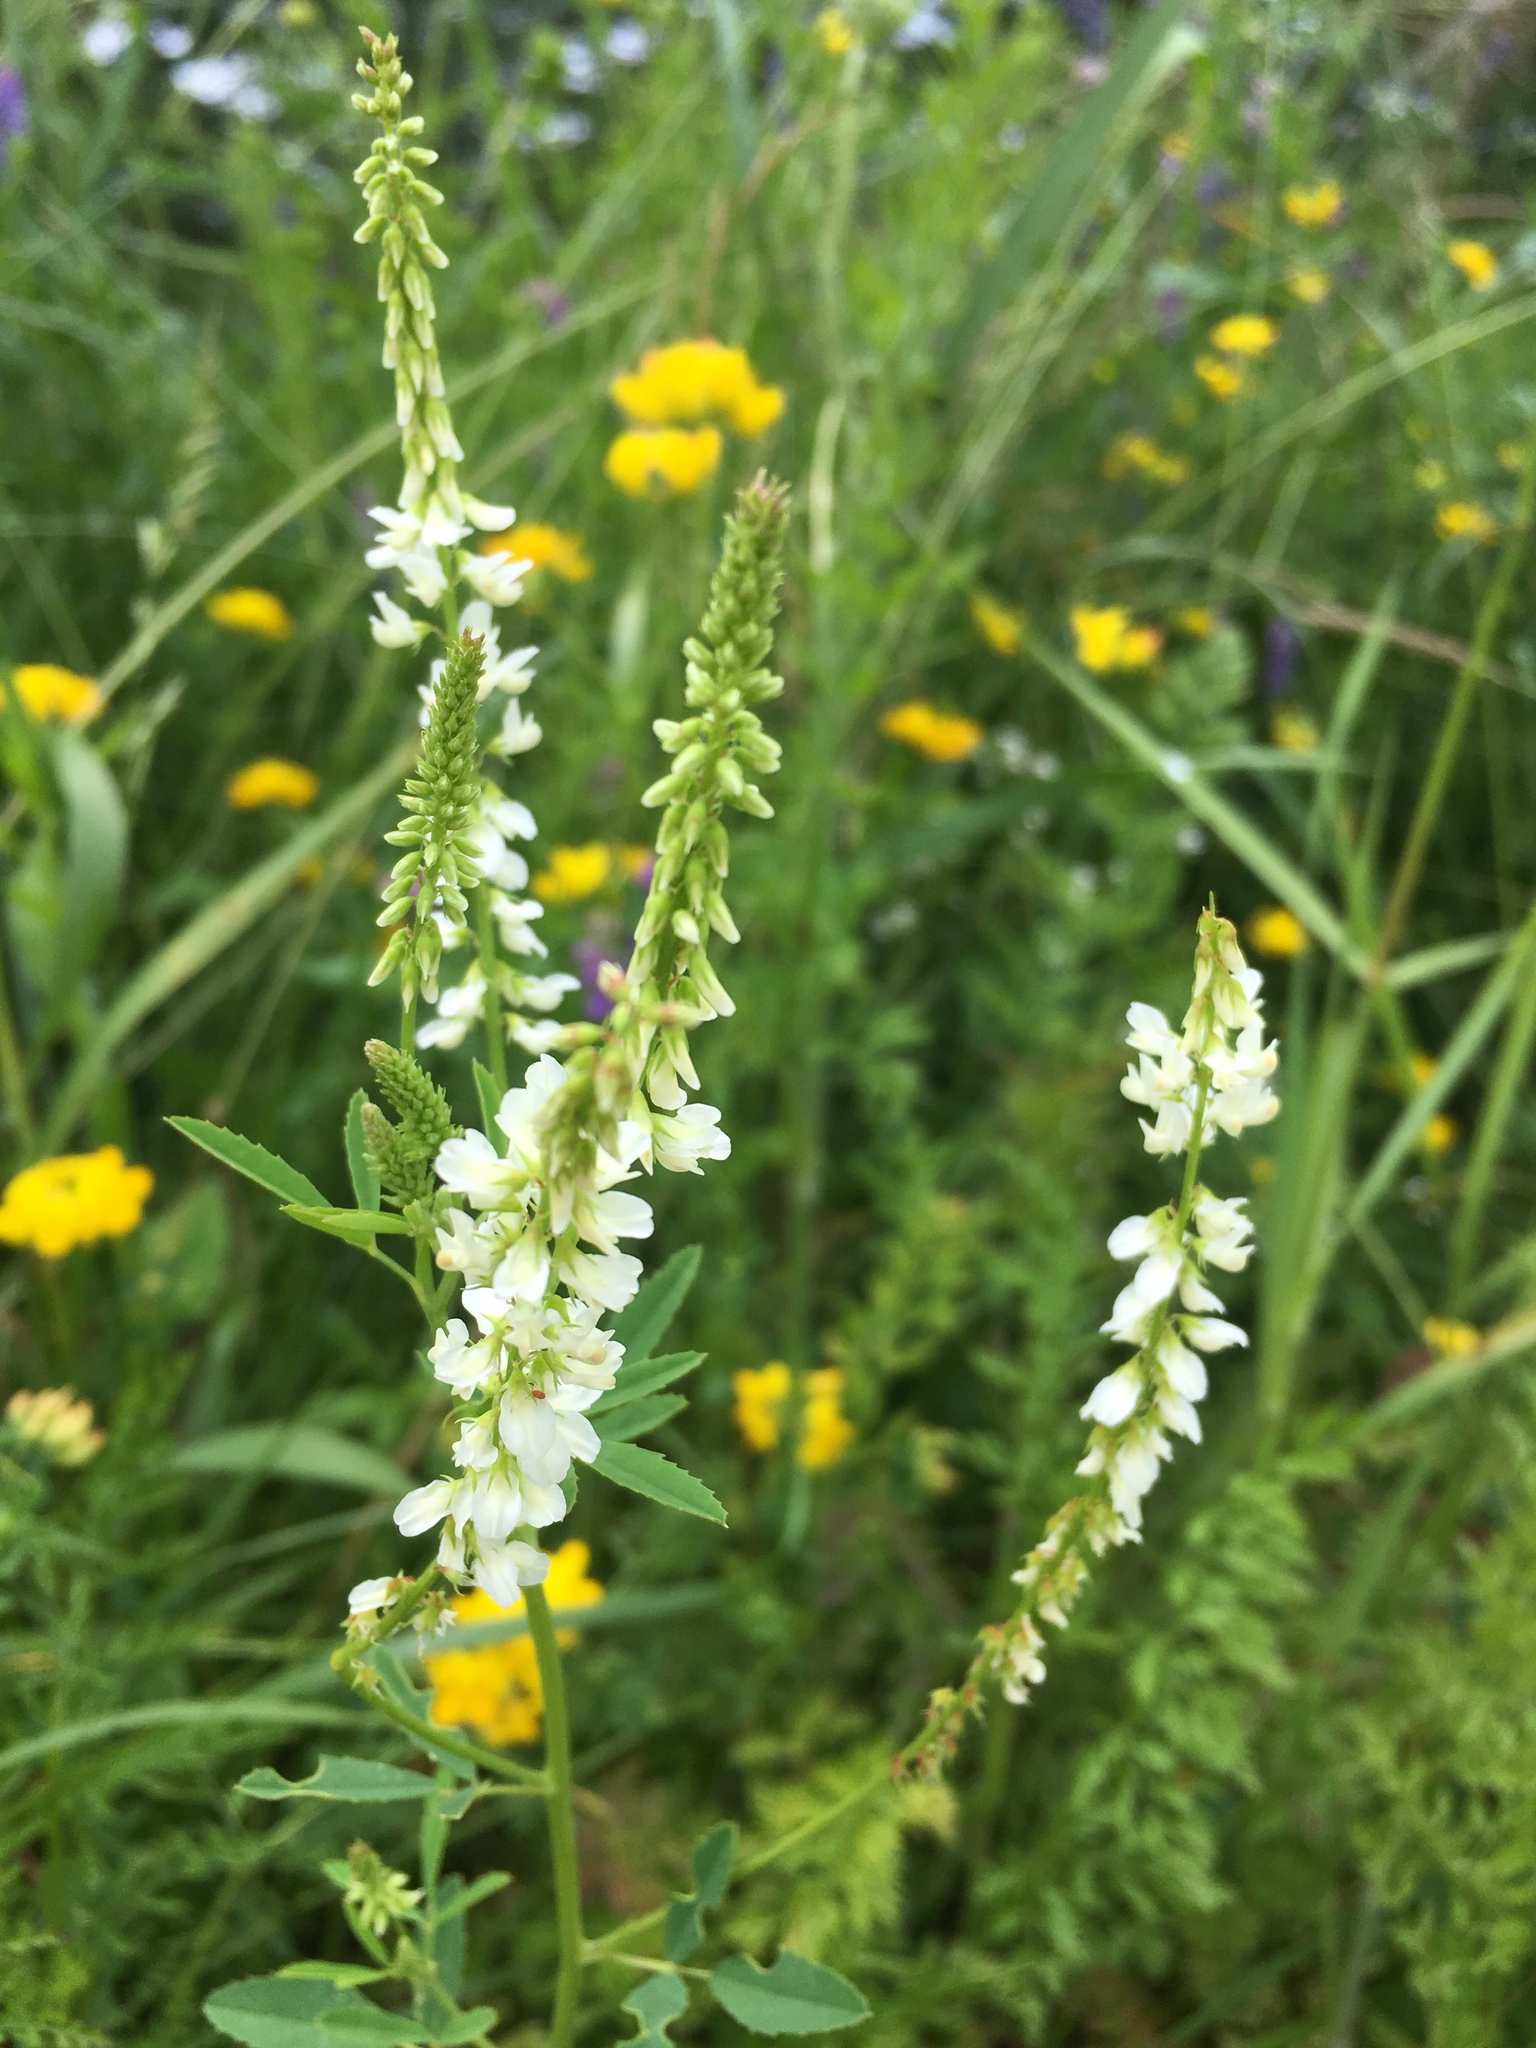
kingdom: Plantae
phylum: Tracheophyta
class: Magnoliopsida
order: Fabales
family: Fabaceae
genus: Melilotus
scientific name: Melilotus albus
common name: White melilot
